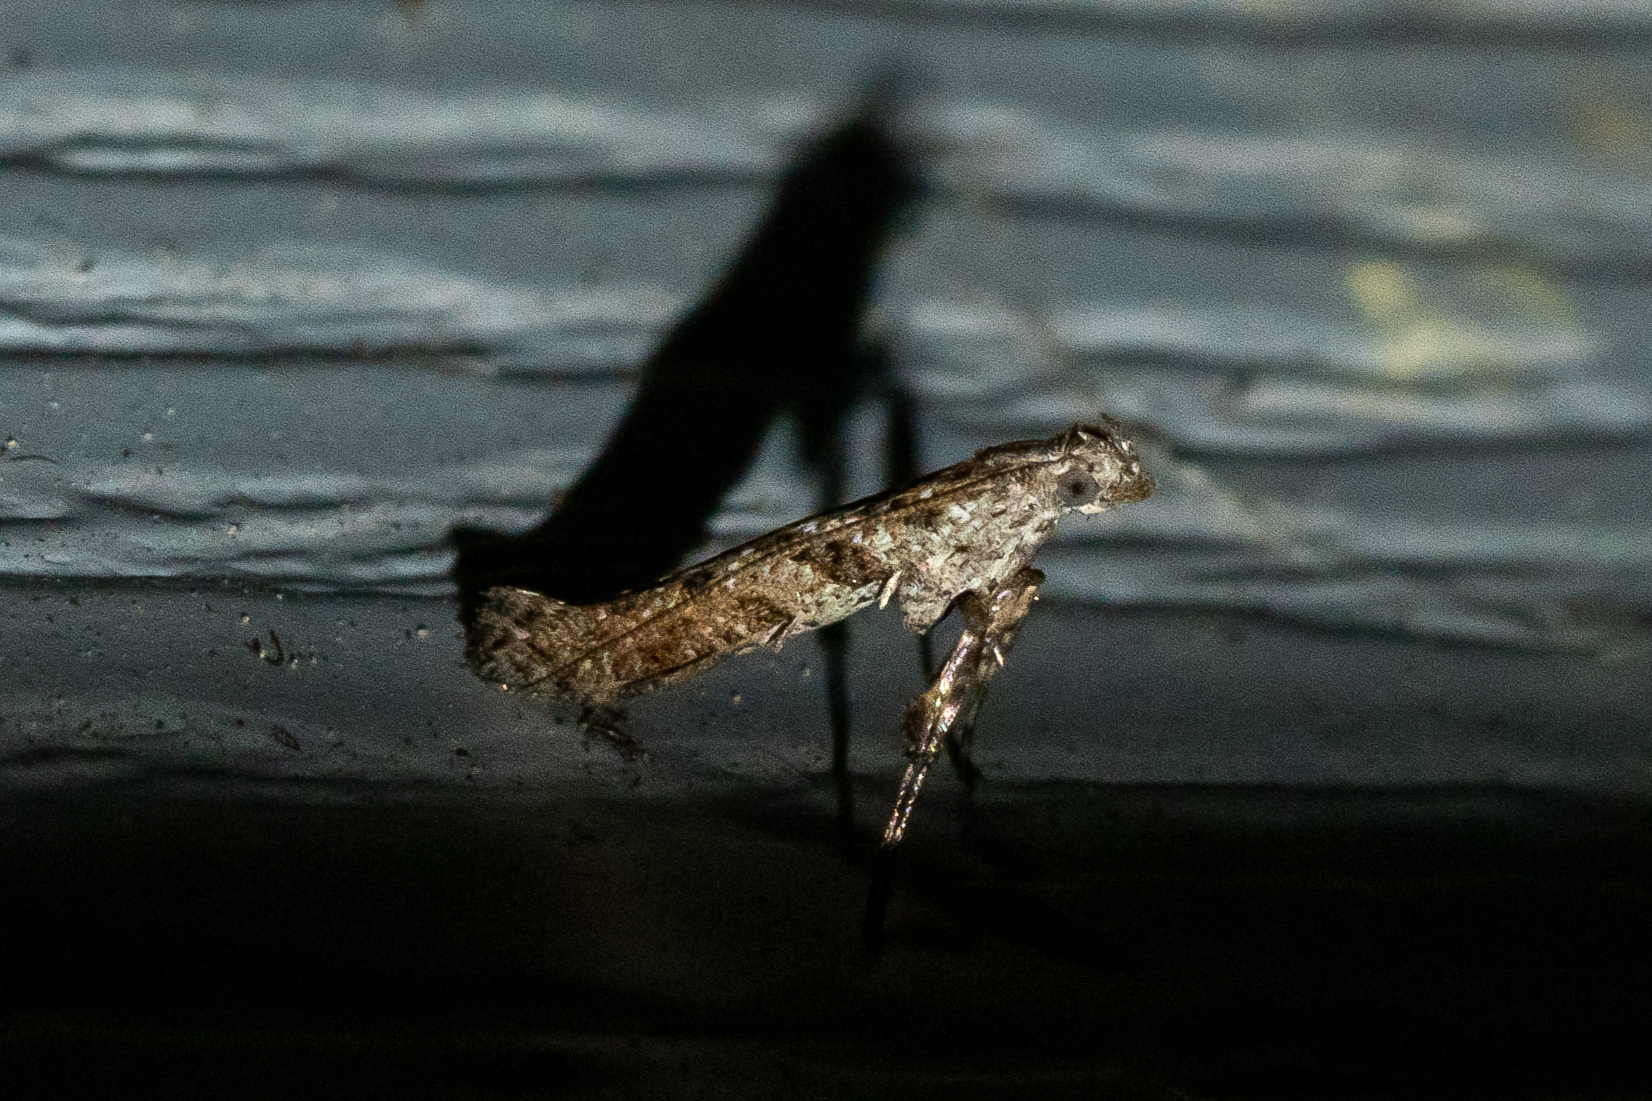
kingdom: Animalia
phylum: Arthropoda
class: Insecta
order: Lepidoptera
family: Gracillariidae
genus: Caloptilia
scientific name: Caloptilia fraxinella
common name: Ash leaf cone roller
